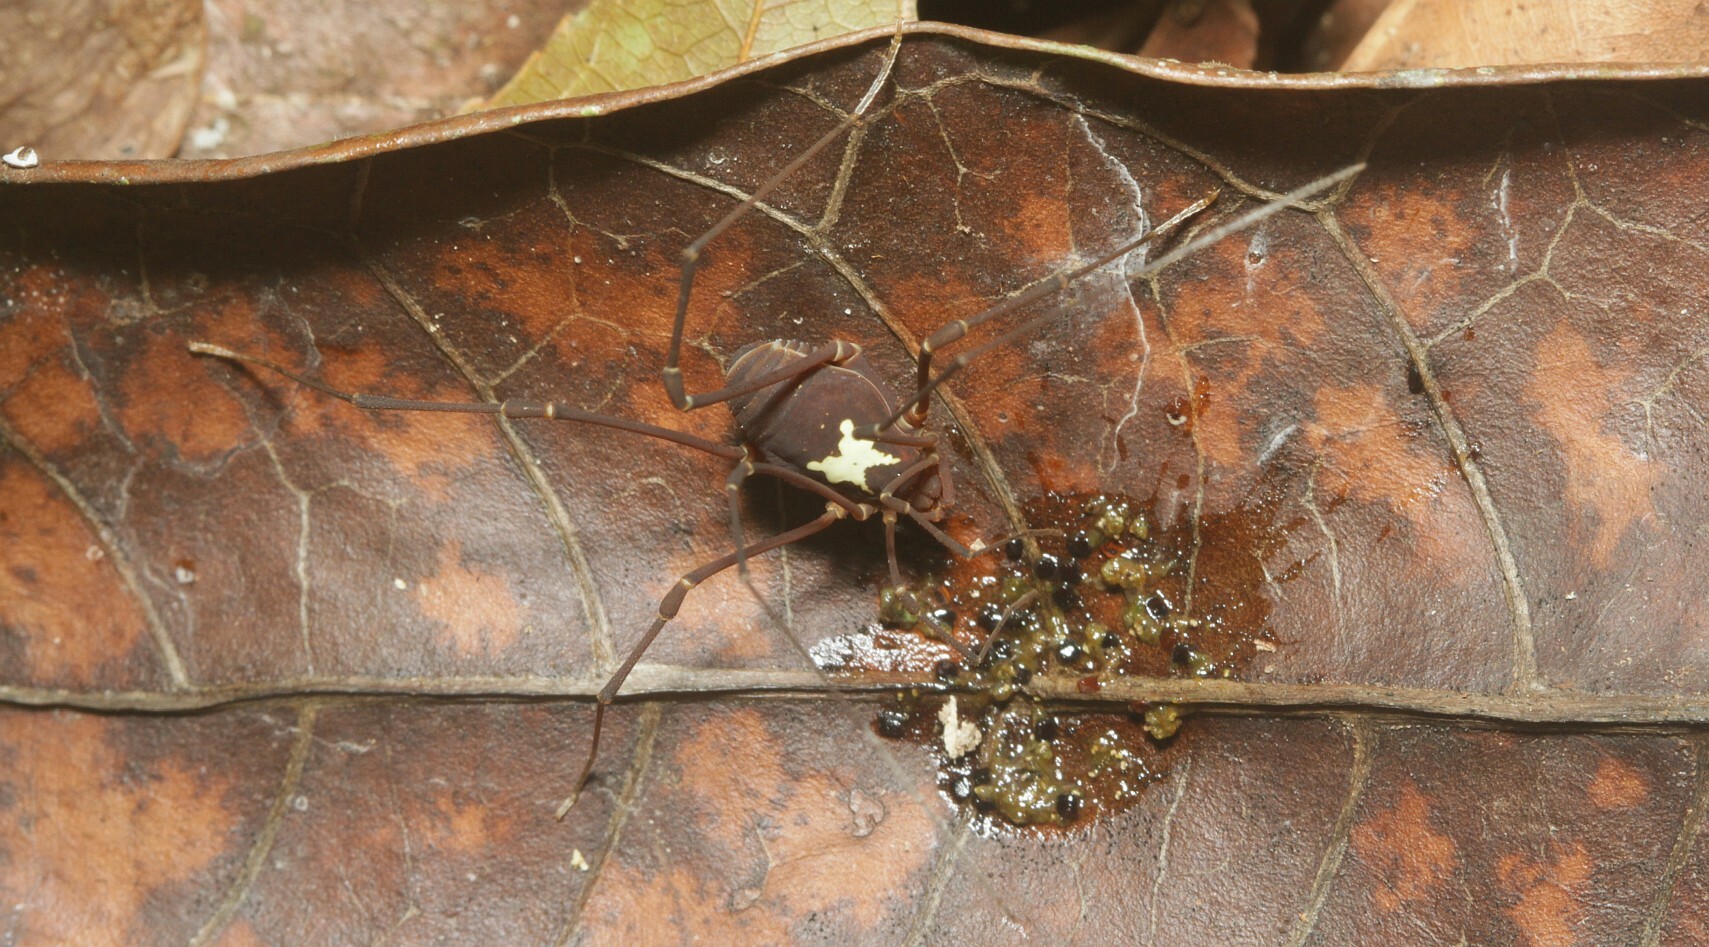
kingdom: Animalia
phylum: Arthropoda
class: Arachnida
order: Opiliones
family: Cosmetidae
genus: Vononana
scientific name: Vononana adrik
